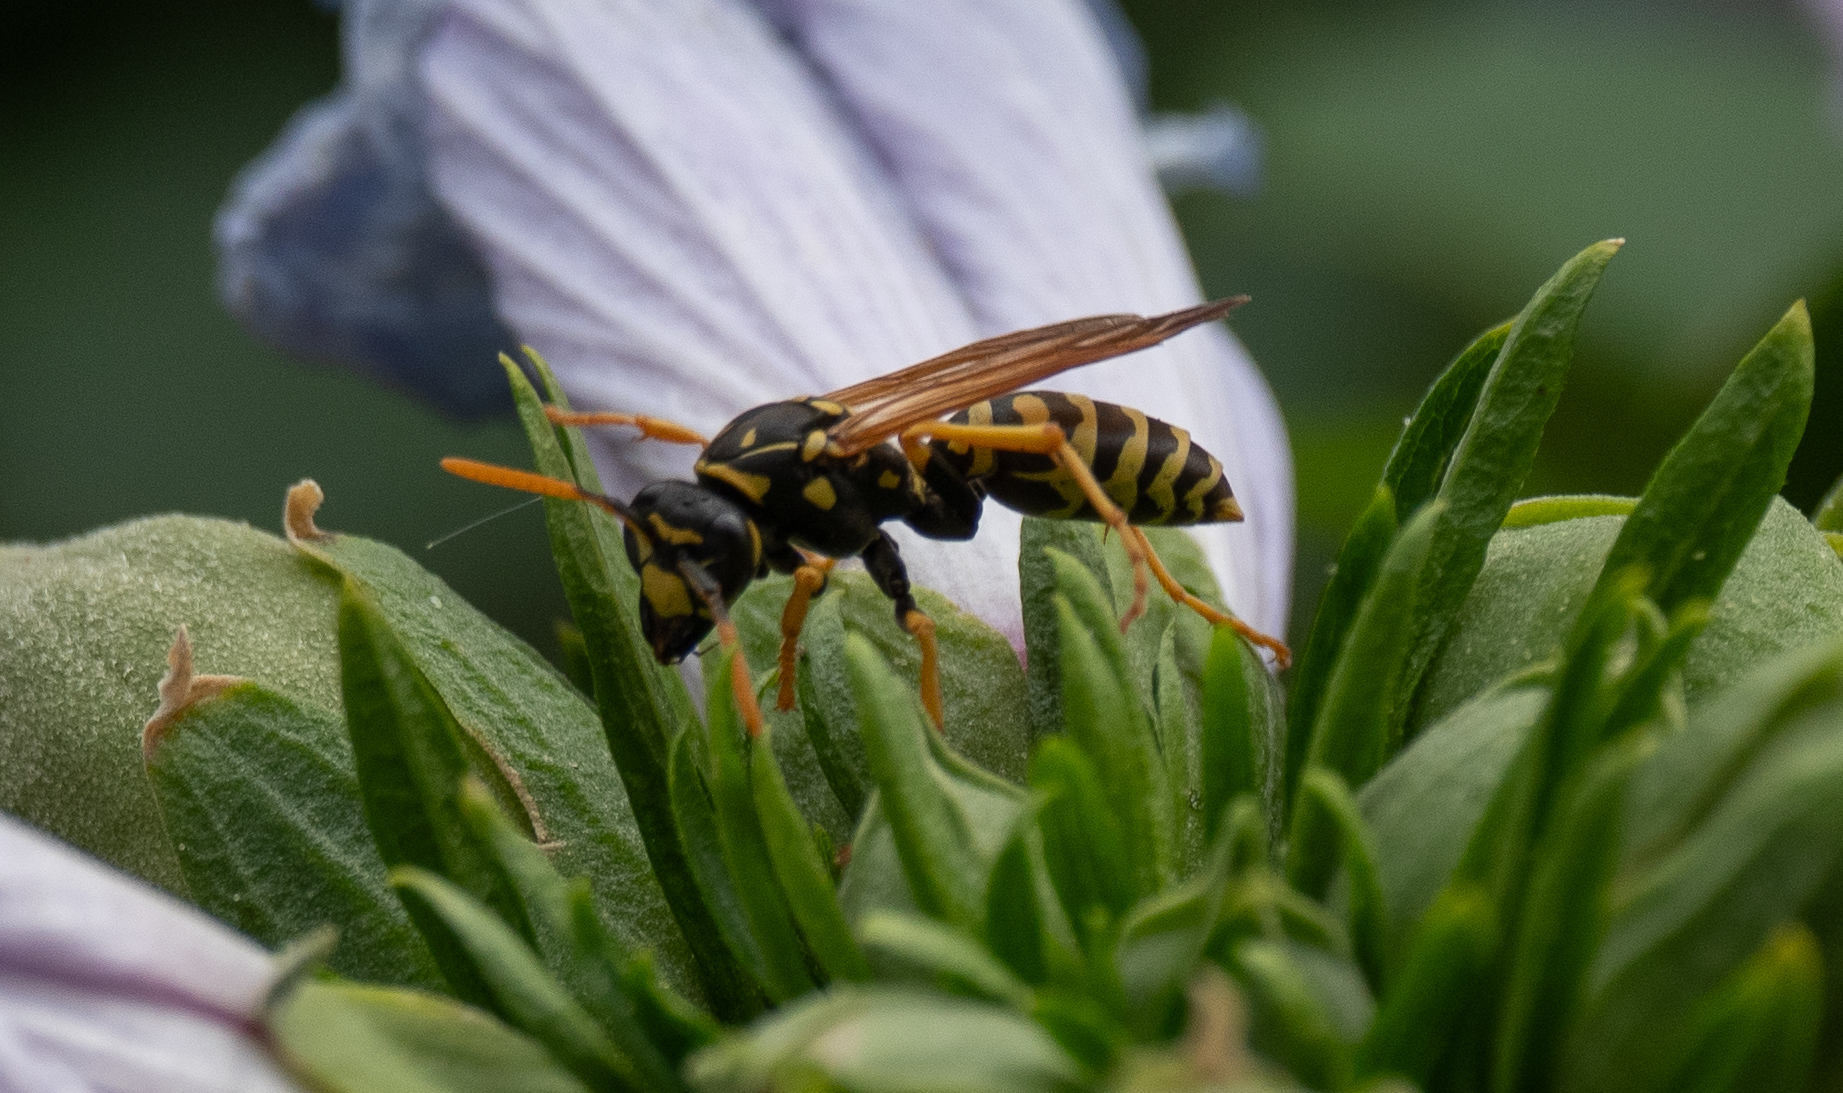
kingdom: Animalia
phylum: Arthropoda
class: Insecta
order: Hymenoptera
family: Eumenidae
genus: Polistes
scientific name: Polistes dominula
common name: Paper wasp
